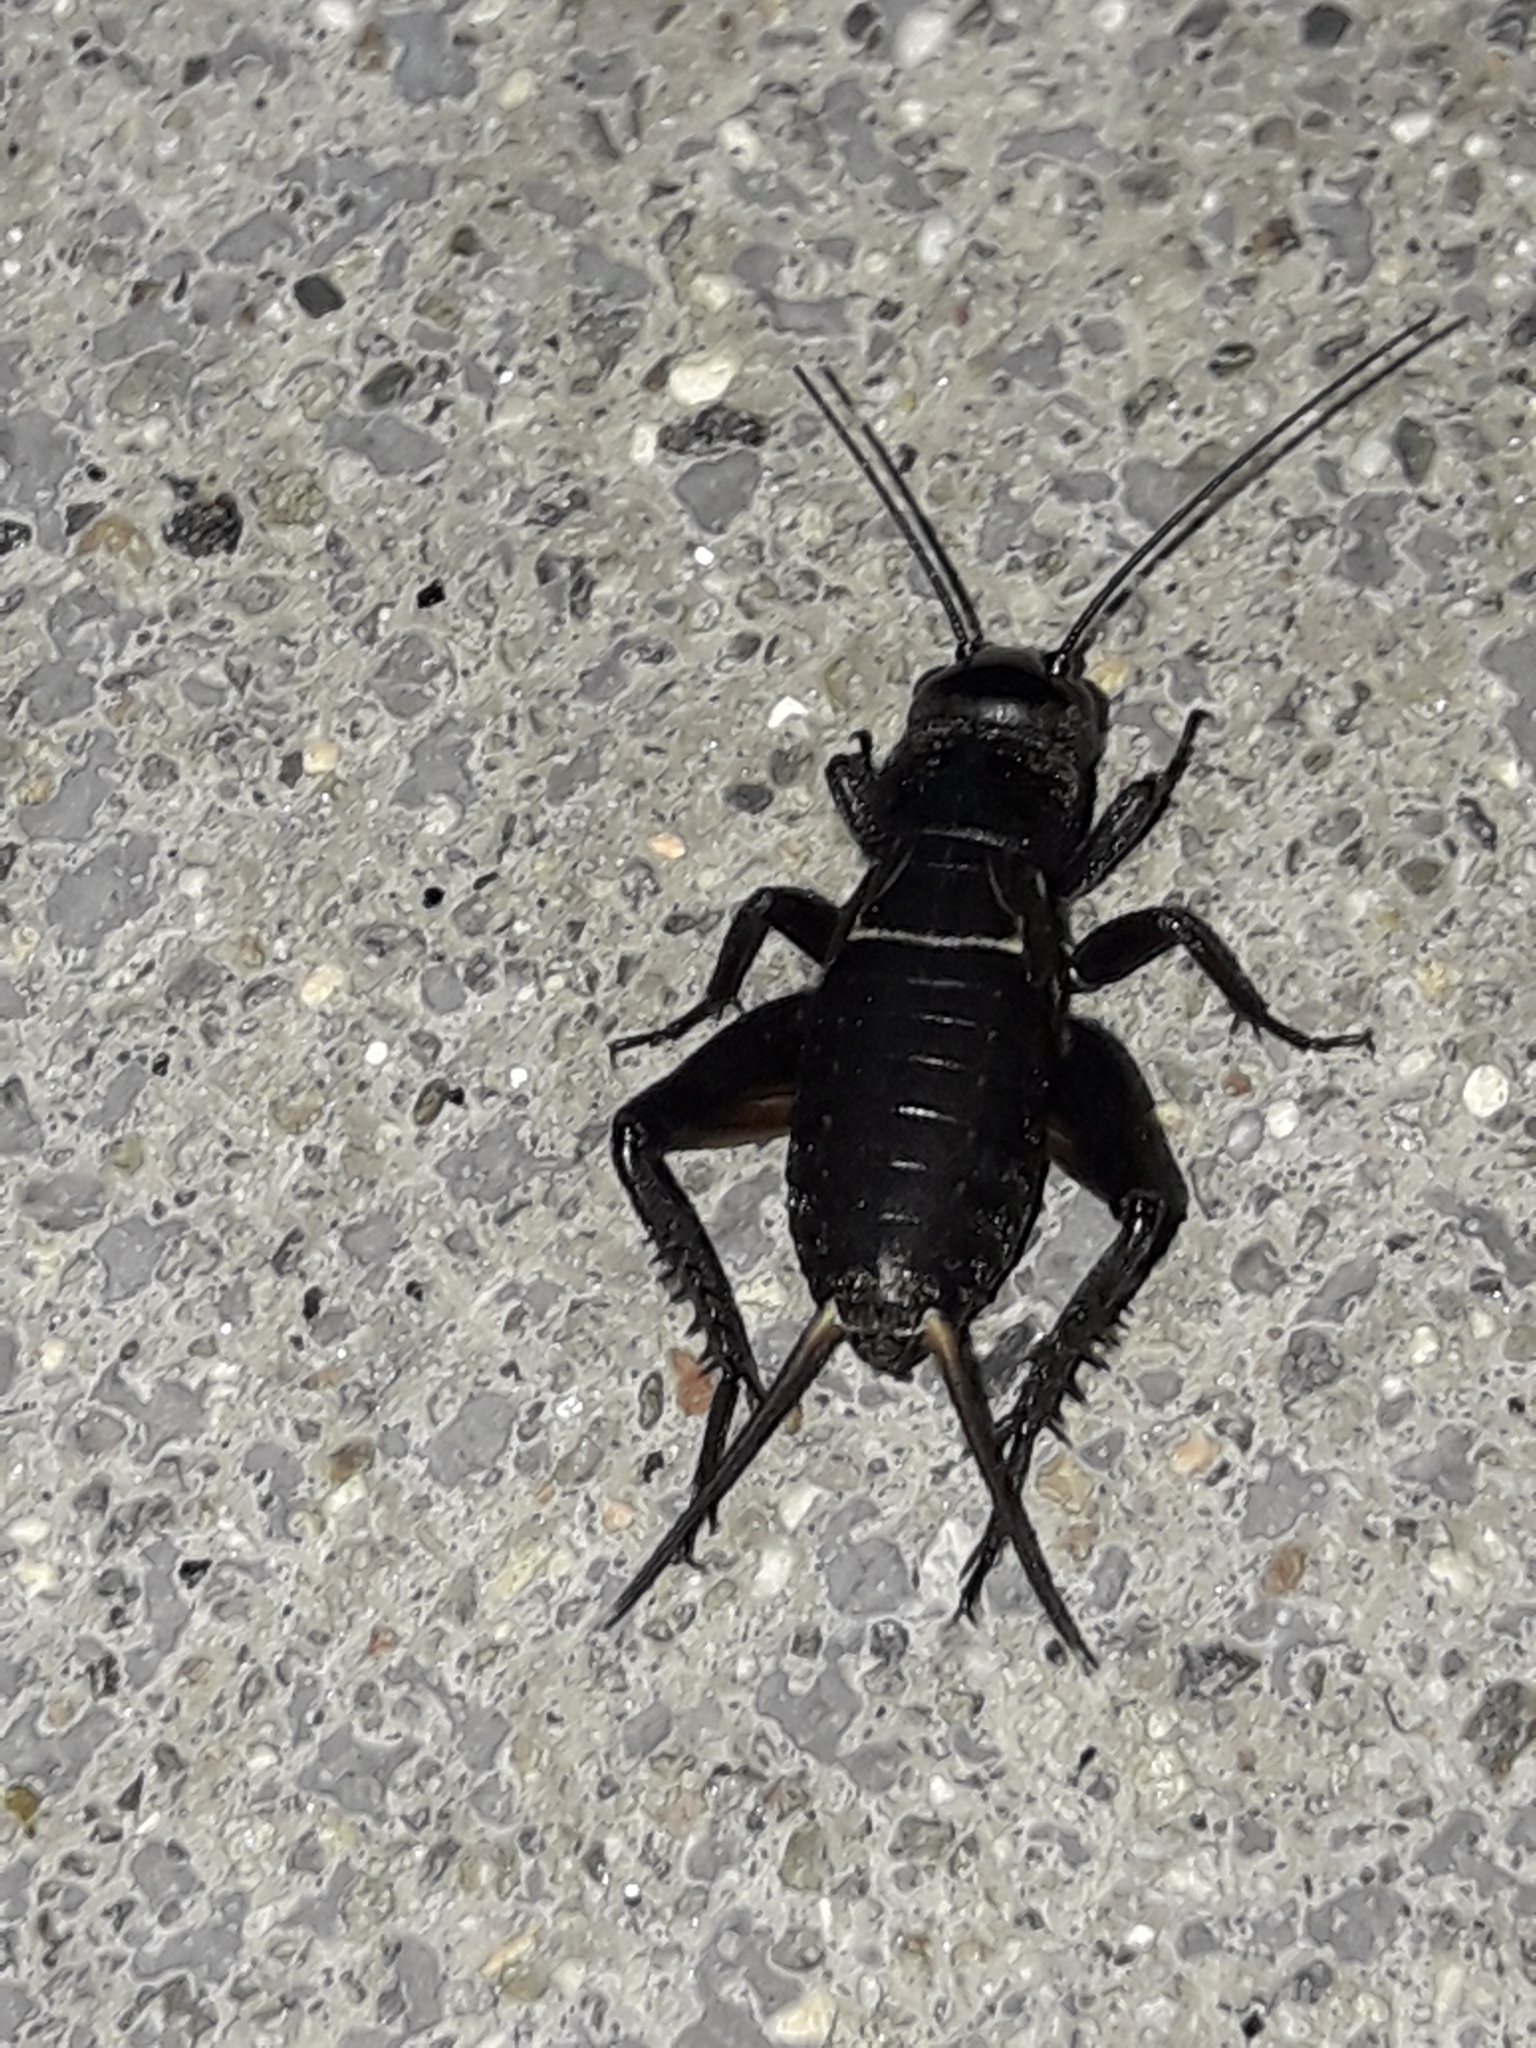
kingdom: Animalia
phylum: Arthropoda
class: Insecta
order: Orthoptera
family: Gryllidae
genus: Teleogryllus
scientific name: Teleogryllus commodus
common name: Black field cricket
